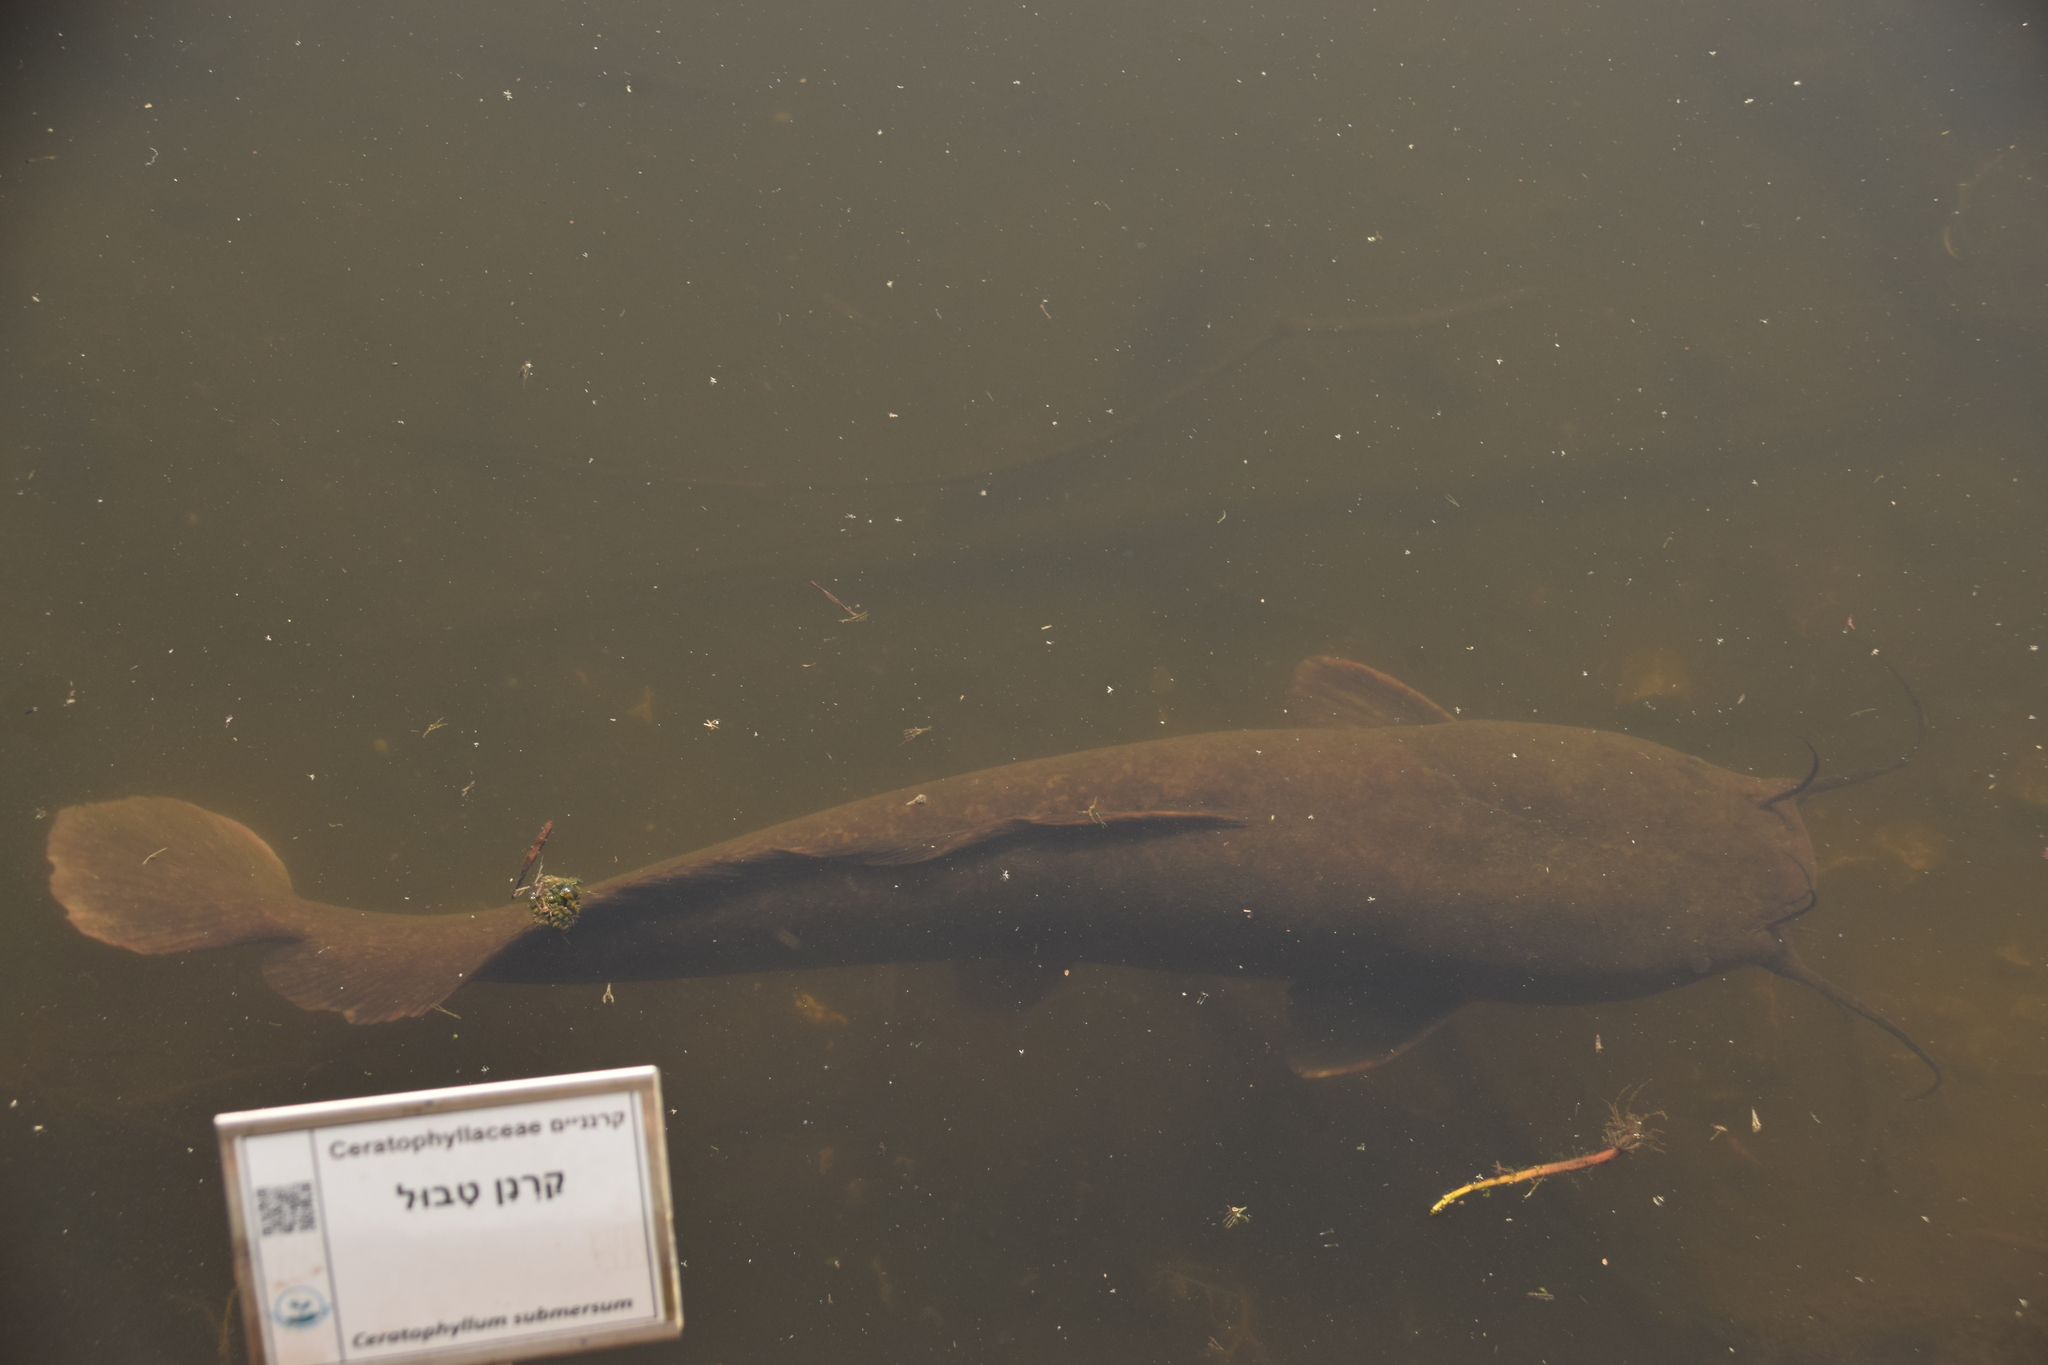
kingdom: Animalia
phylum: Chordata
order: Siluriformes
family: Clariidae
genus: Clarias
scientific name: Clarias gariepinus
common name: African catfish
